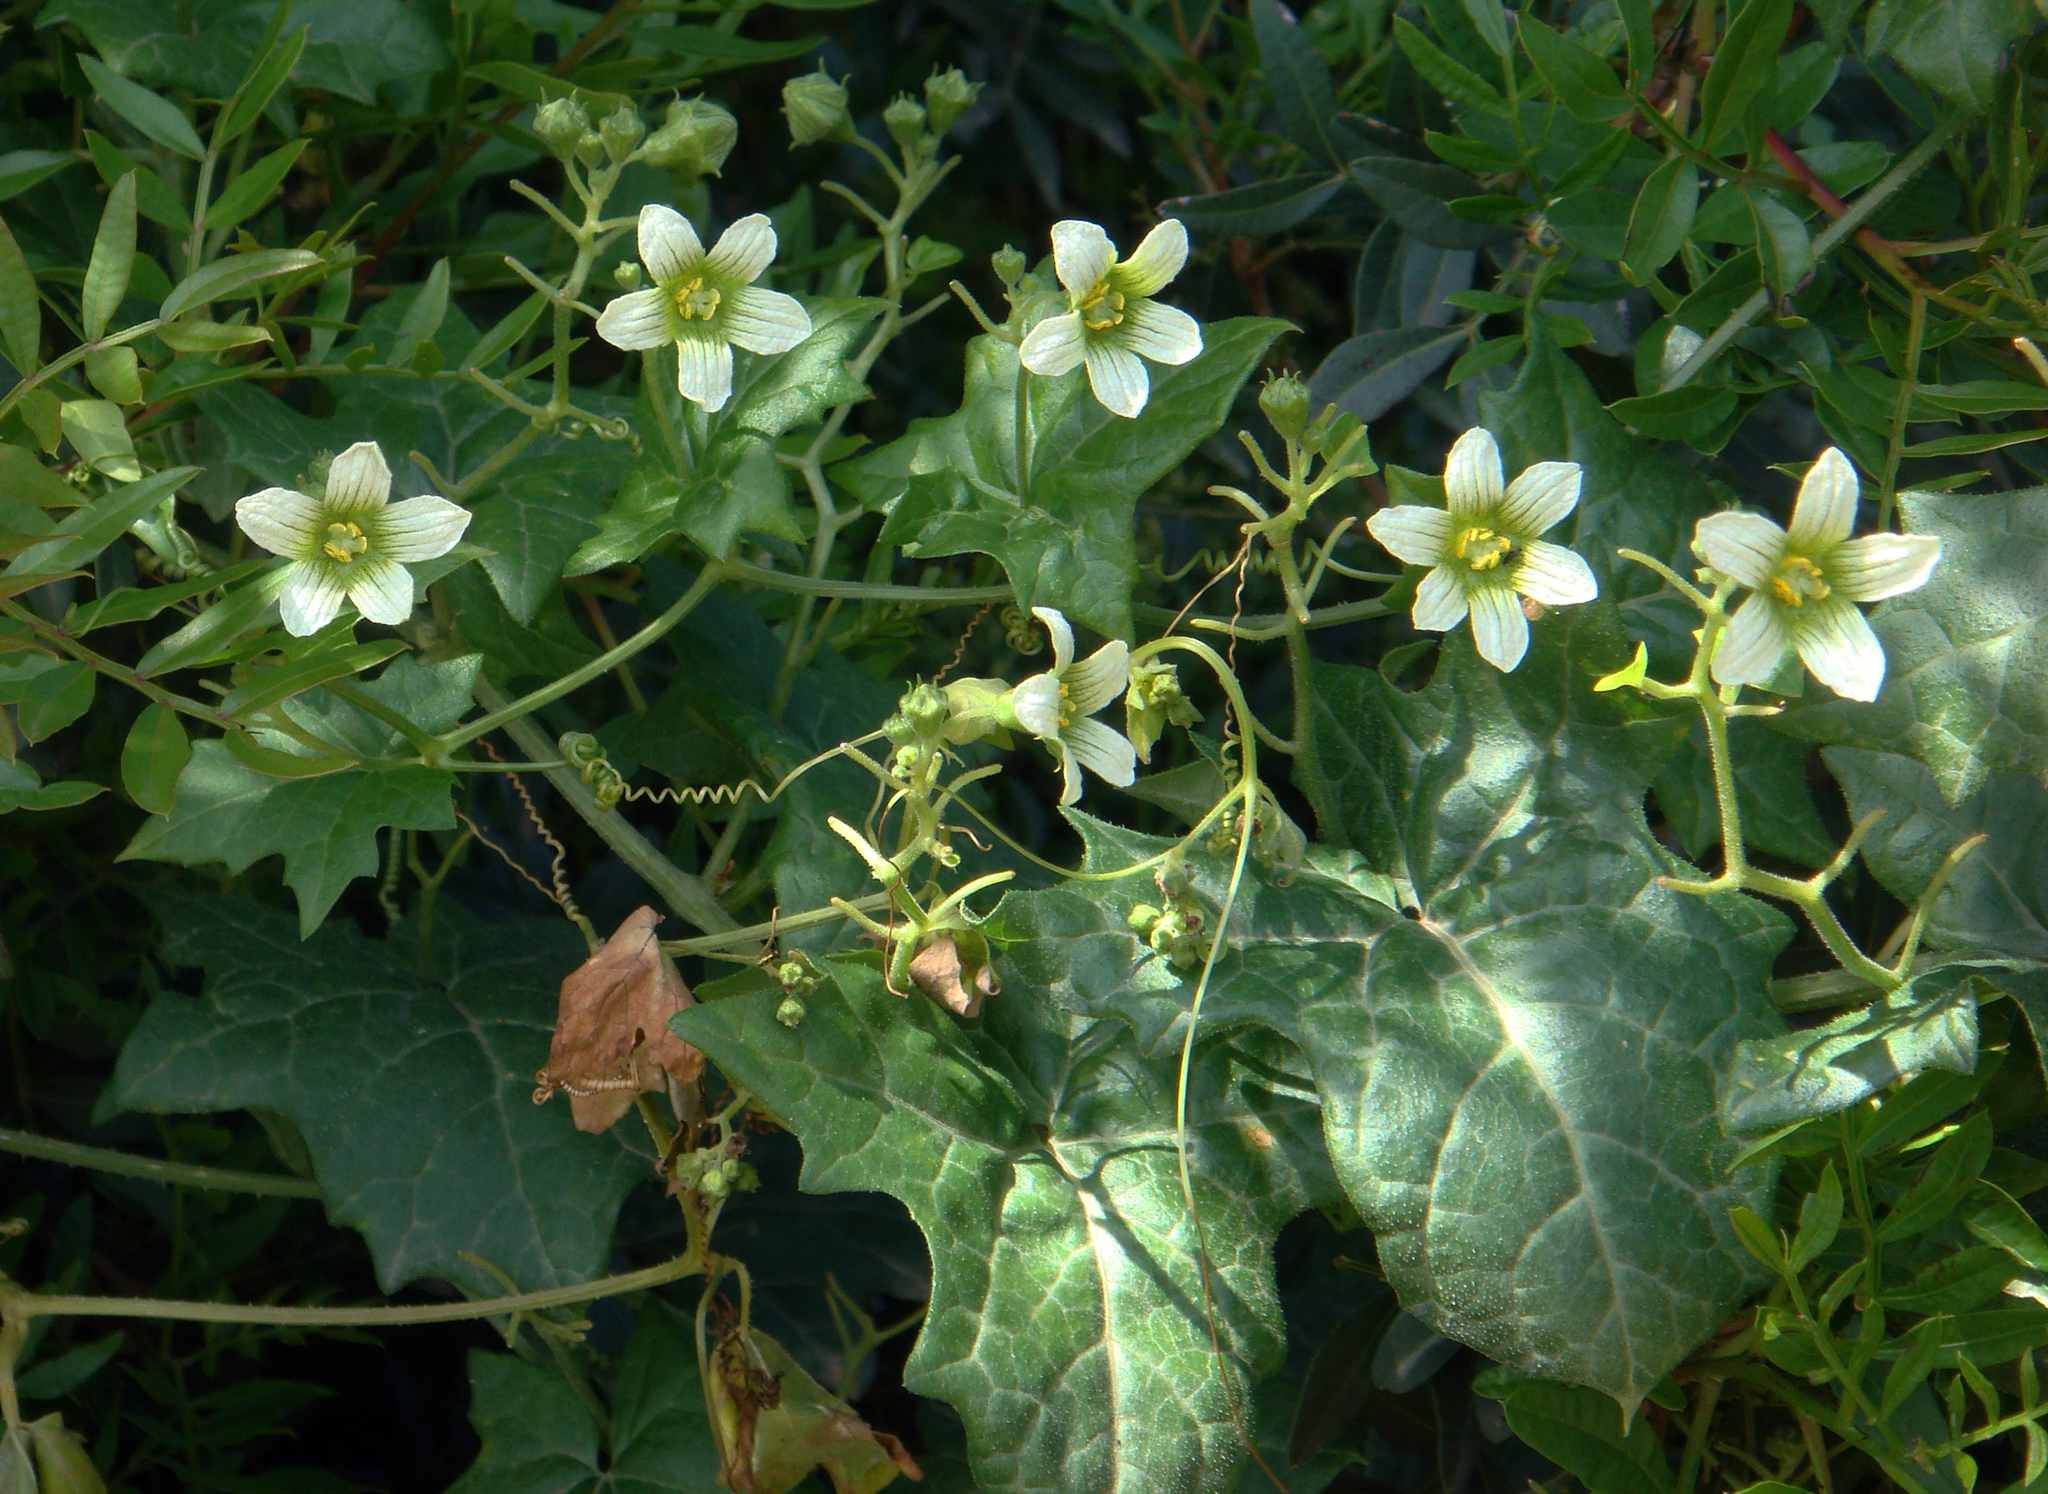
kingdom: Plantae
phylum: Tracheophyta
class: Magnoliopsida
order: Cucurbitales
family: Cucurbitaceae
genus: Bryonia
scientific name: Bryonia dioica
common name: White bryony
